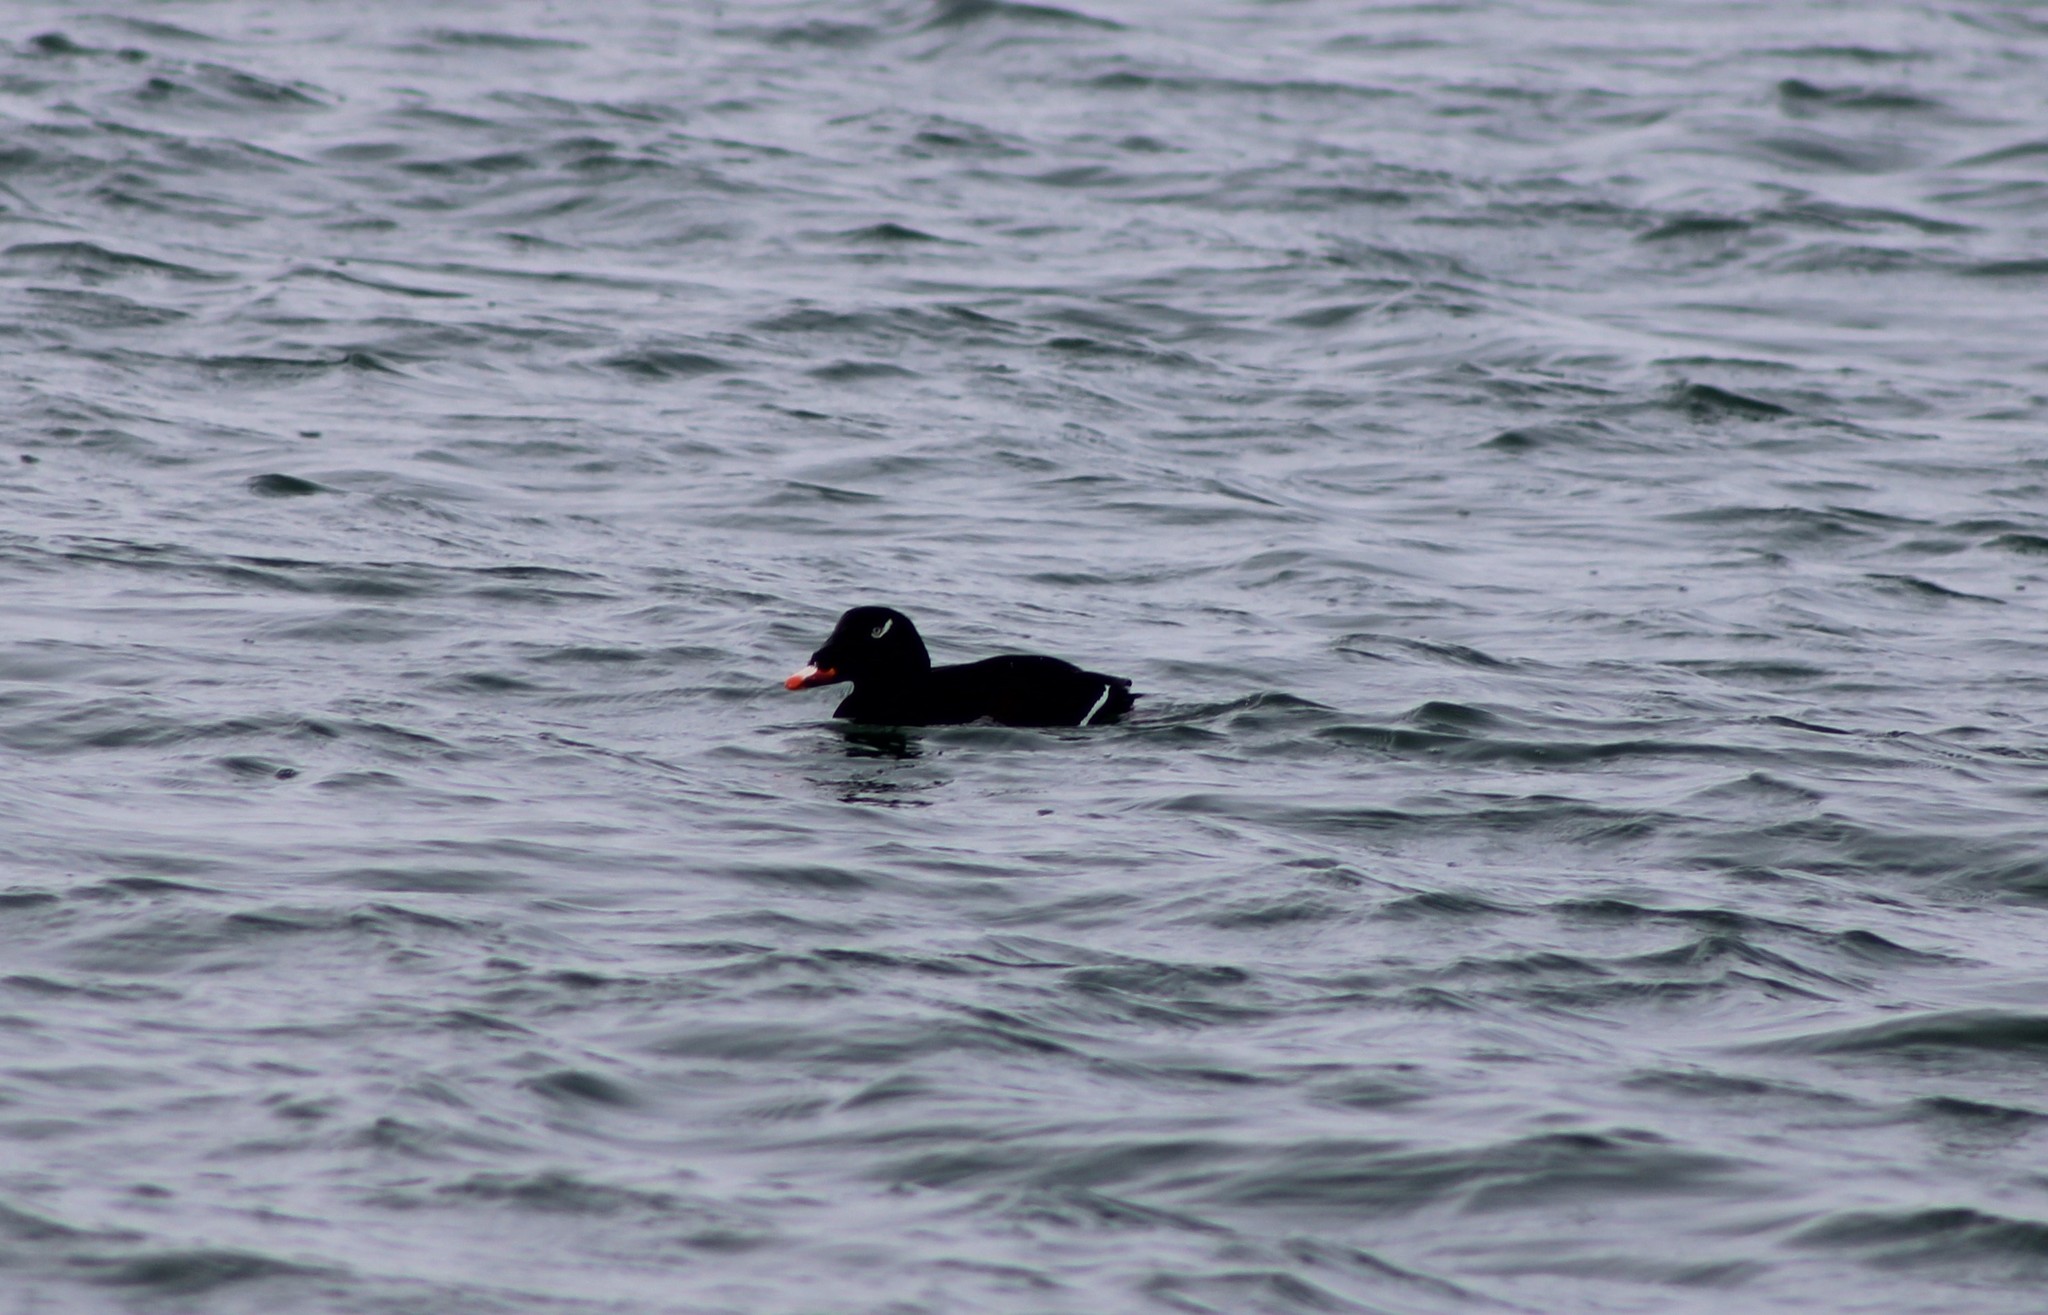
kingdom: Animalia
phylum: Chordata
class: Aves
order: Anseriformes
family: Anatidae
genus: Melanitta
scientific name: Melanitta deglandi
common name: White-winged scoter
